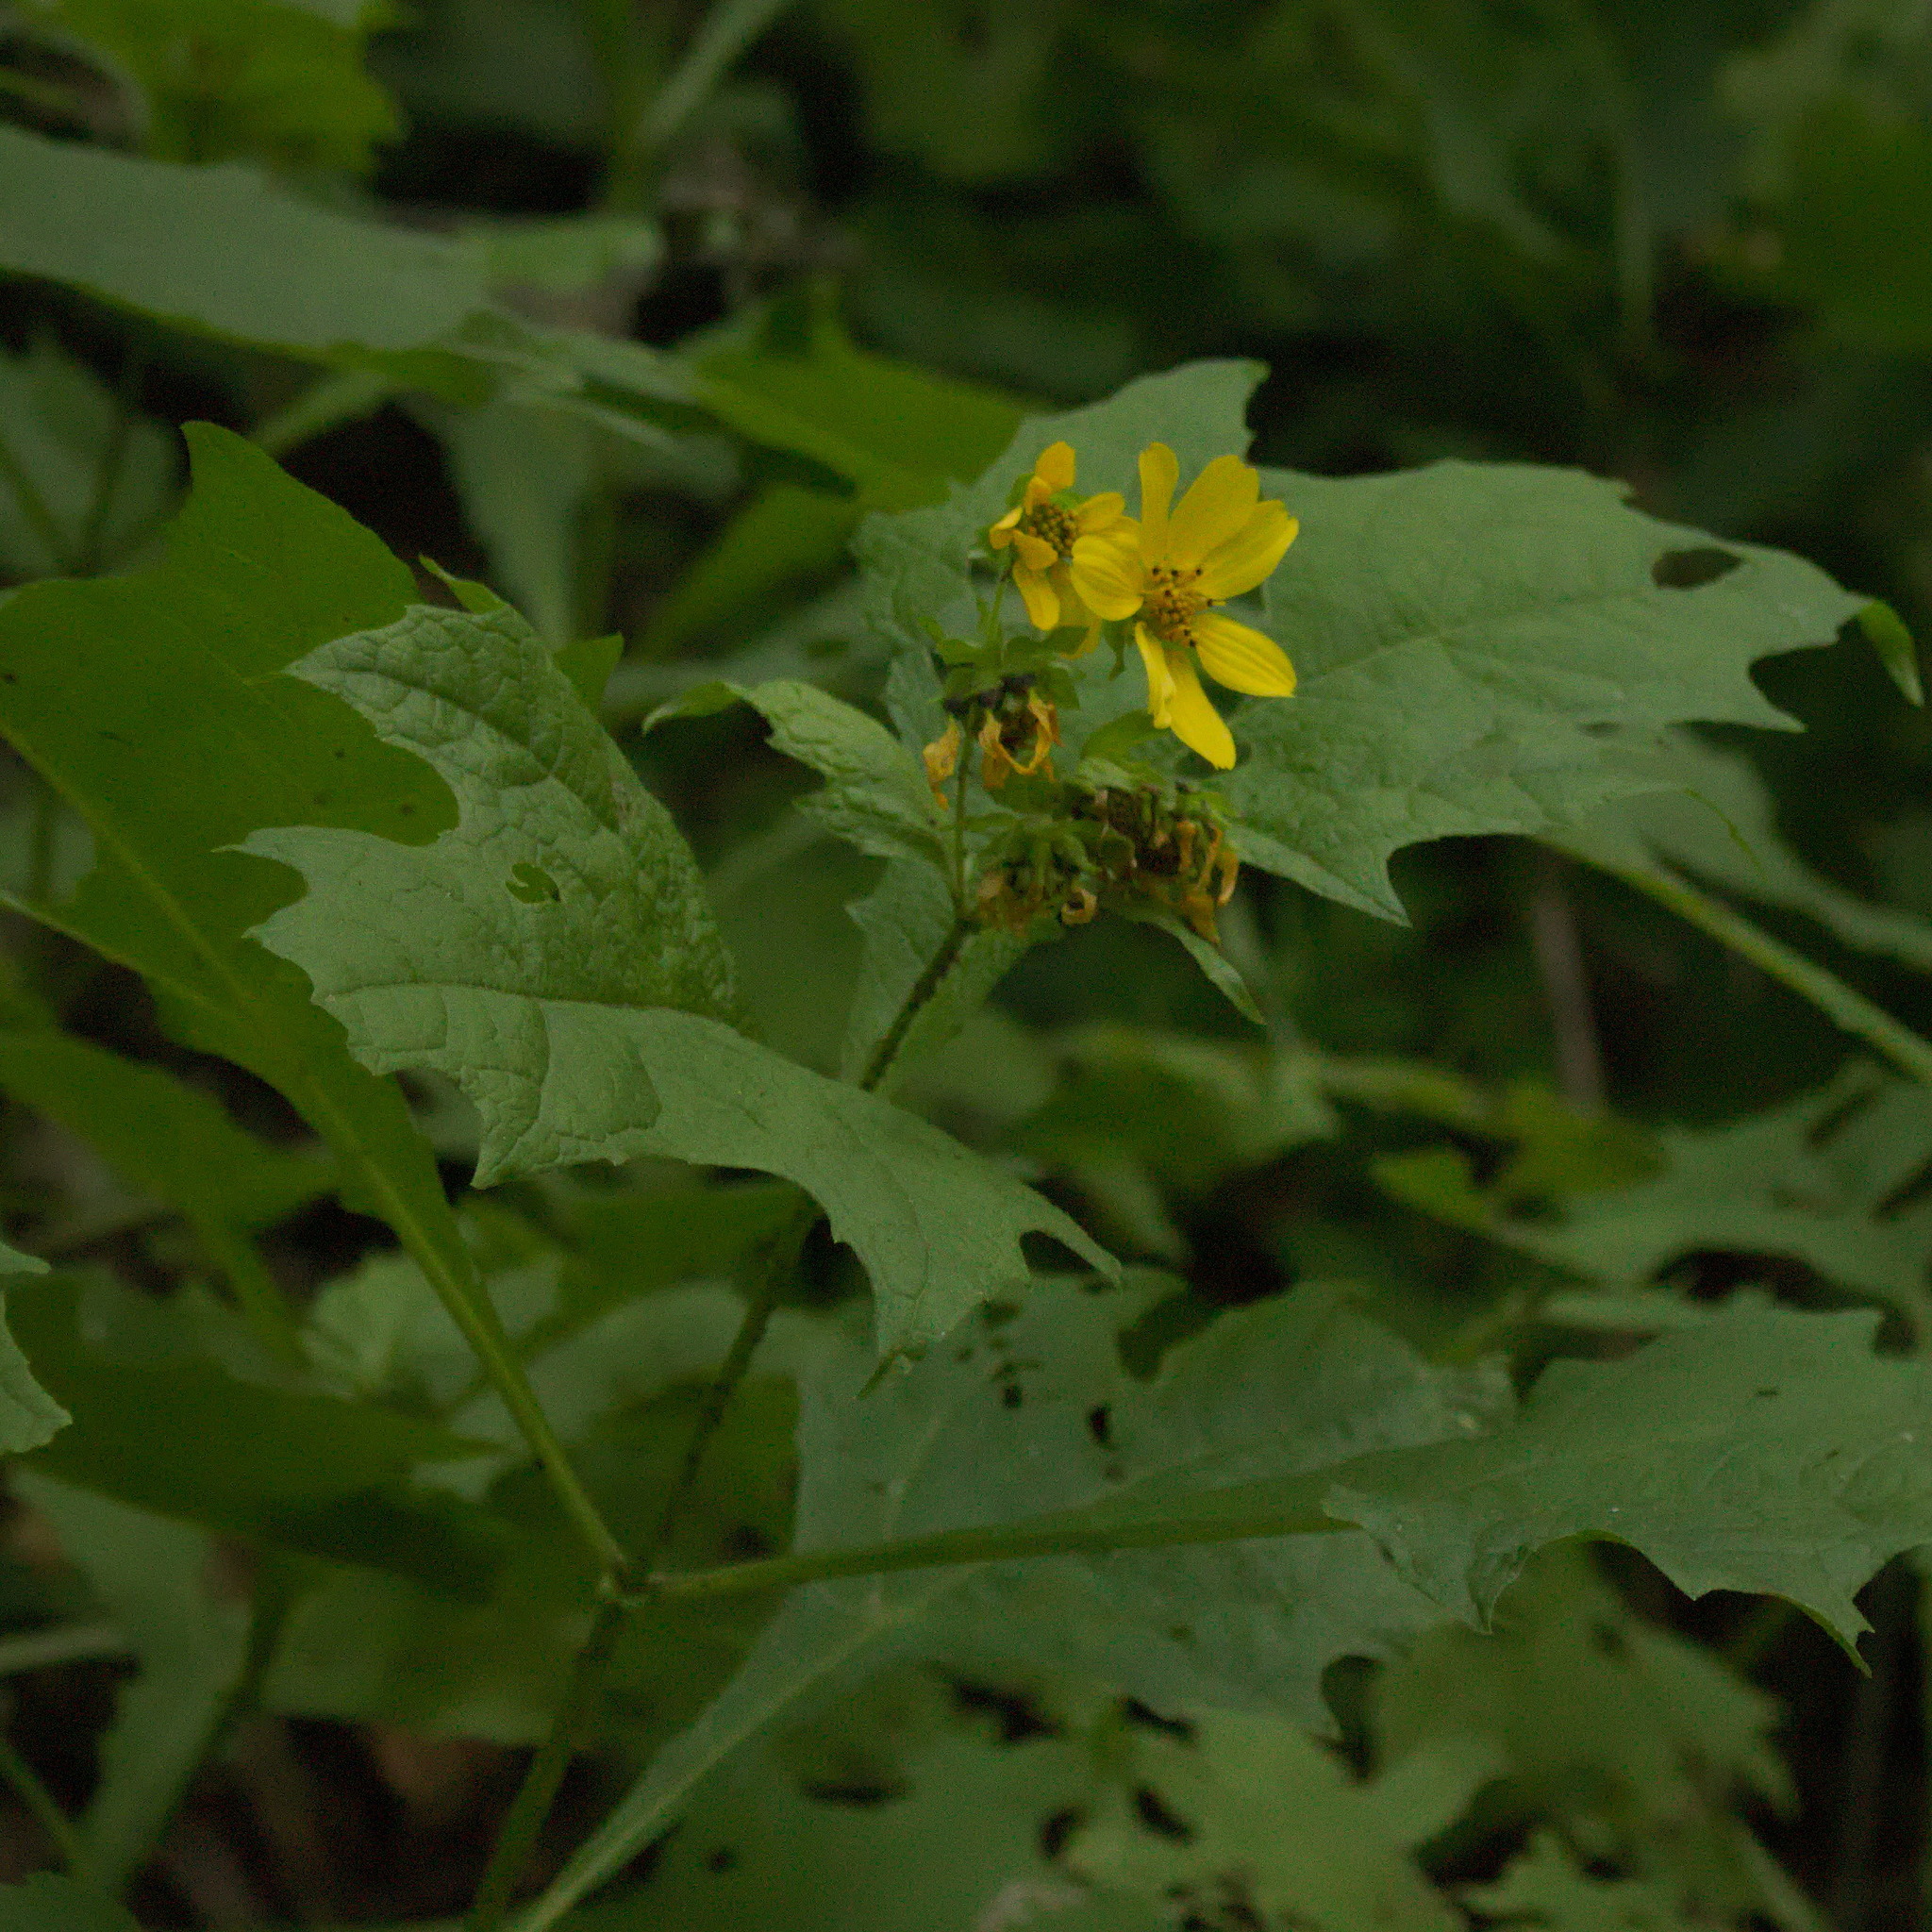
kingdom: Plantae
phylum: Tracheophyta
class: Magnoliopsida
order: Asterales
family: Asteraceae
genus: Smallanthus
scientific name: Smallanthus uvedalia
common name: Bear's-foot
